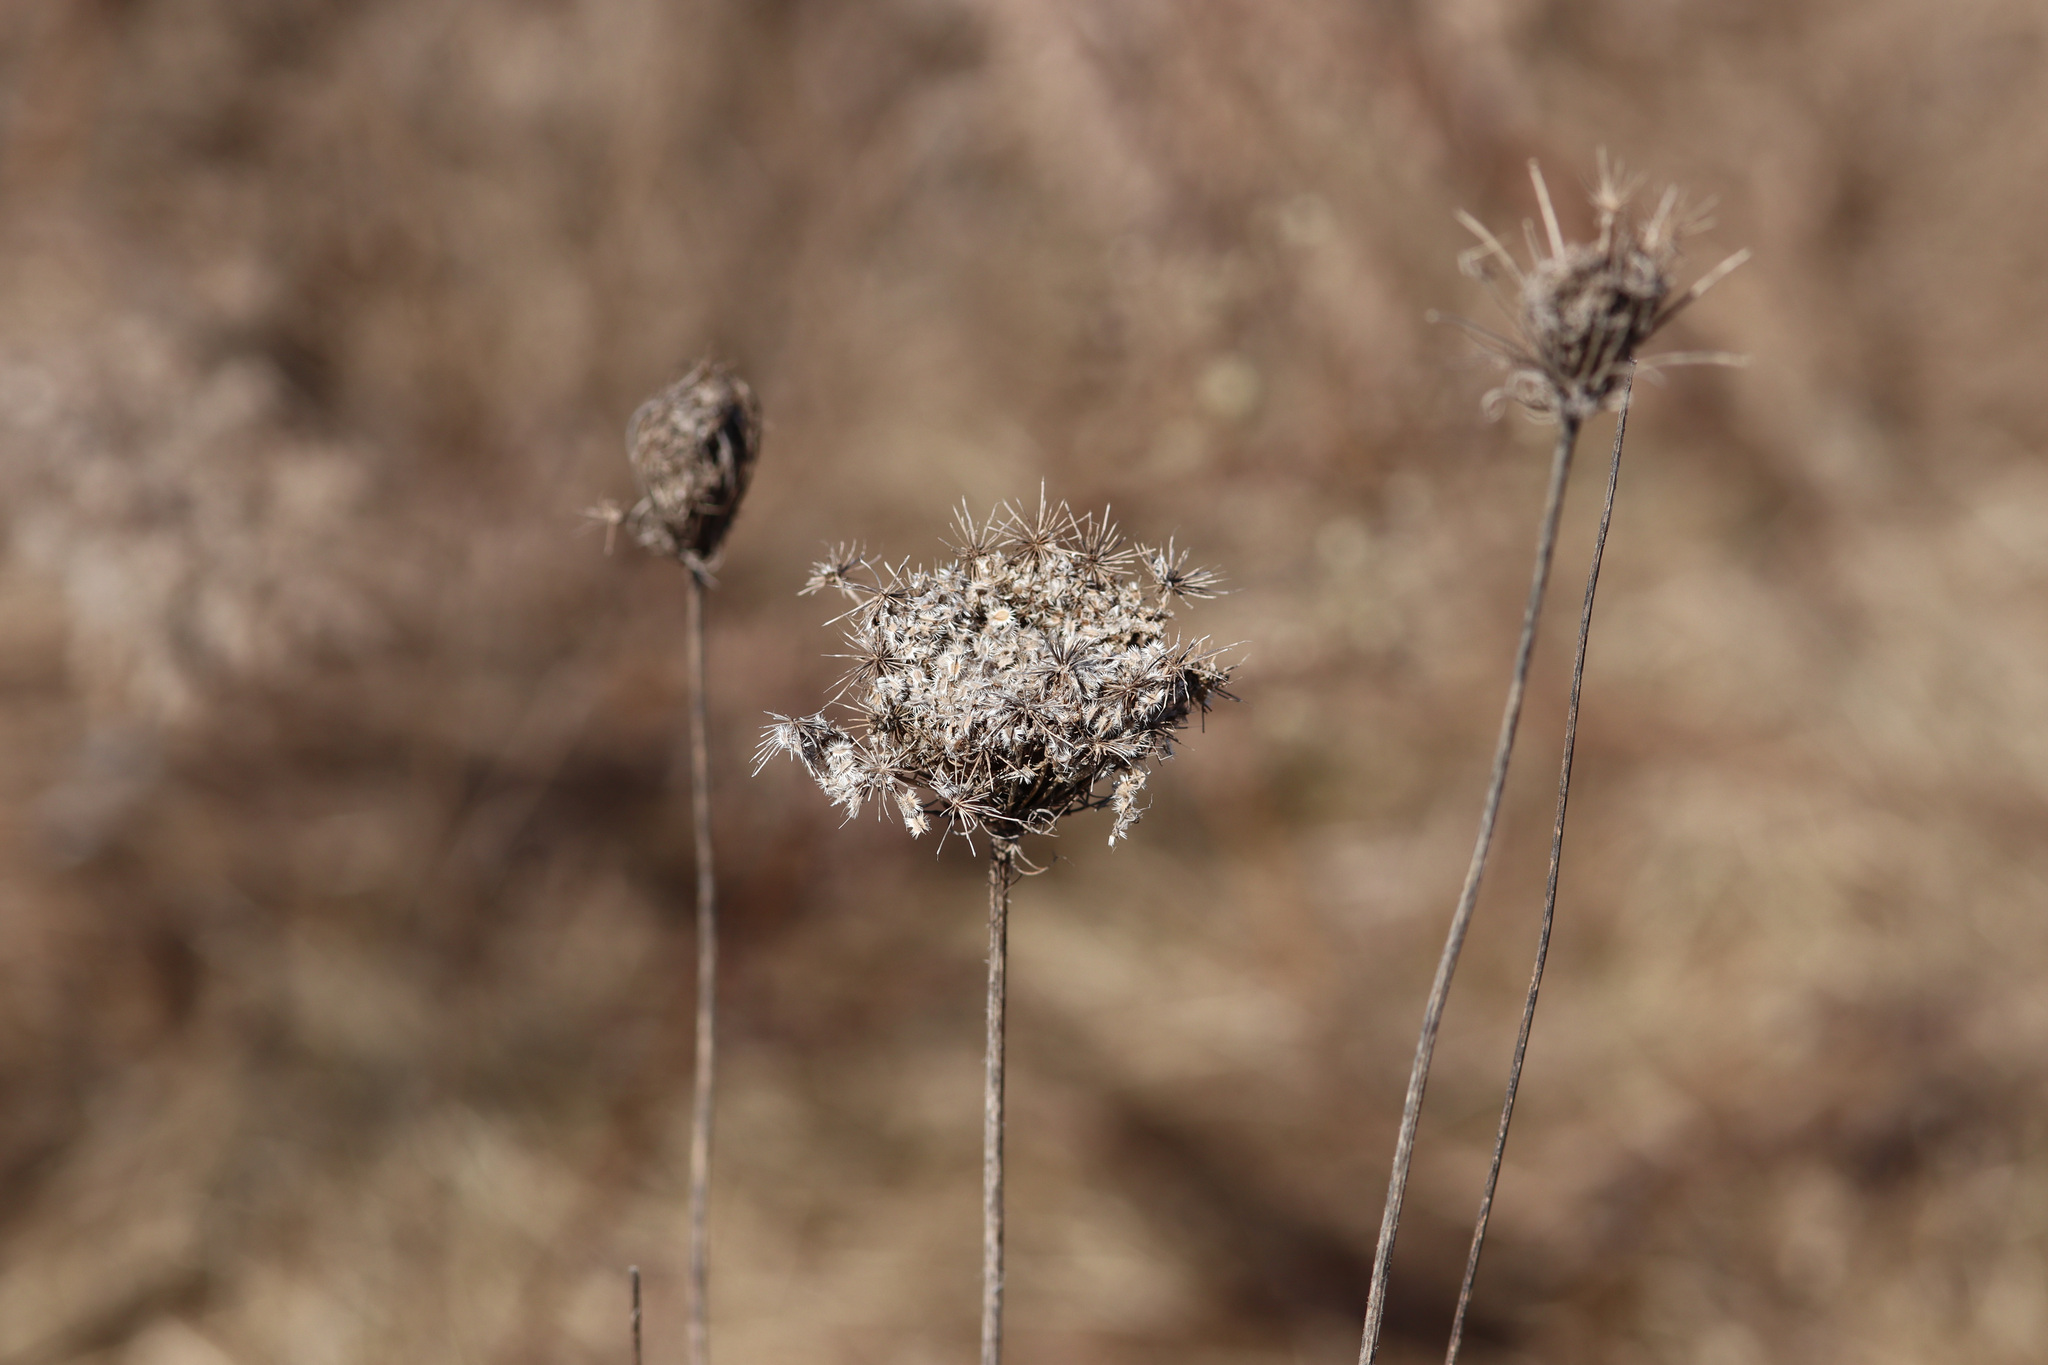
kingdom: Plantae
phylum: Tracheophyta
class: Magnoliopsida
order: Apiales
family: Apiaceae
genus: Daucus
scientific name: Daucus carota
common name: Wild carrot
